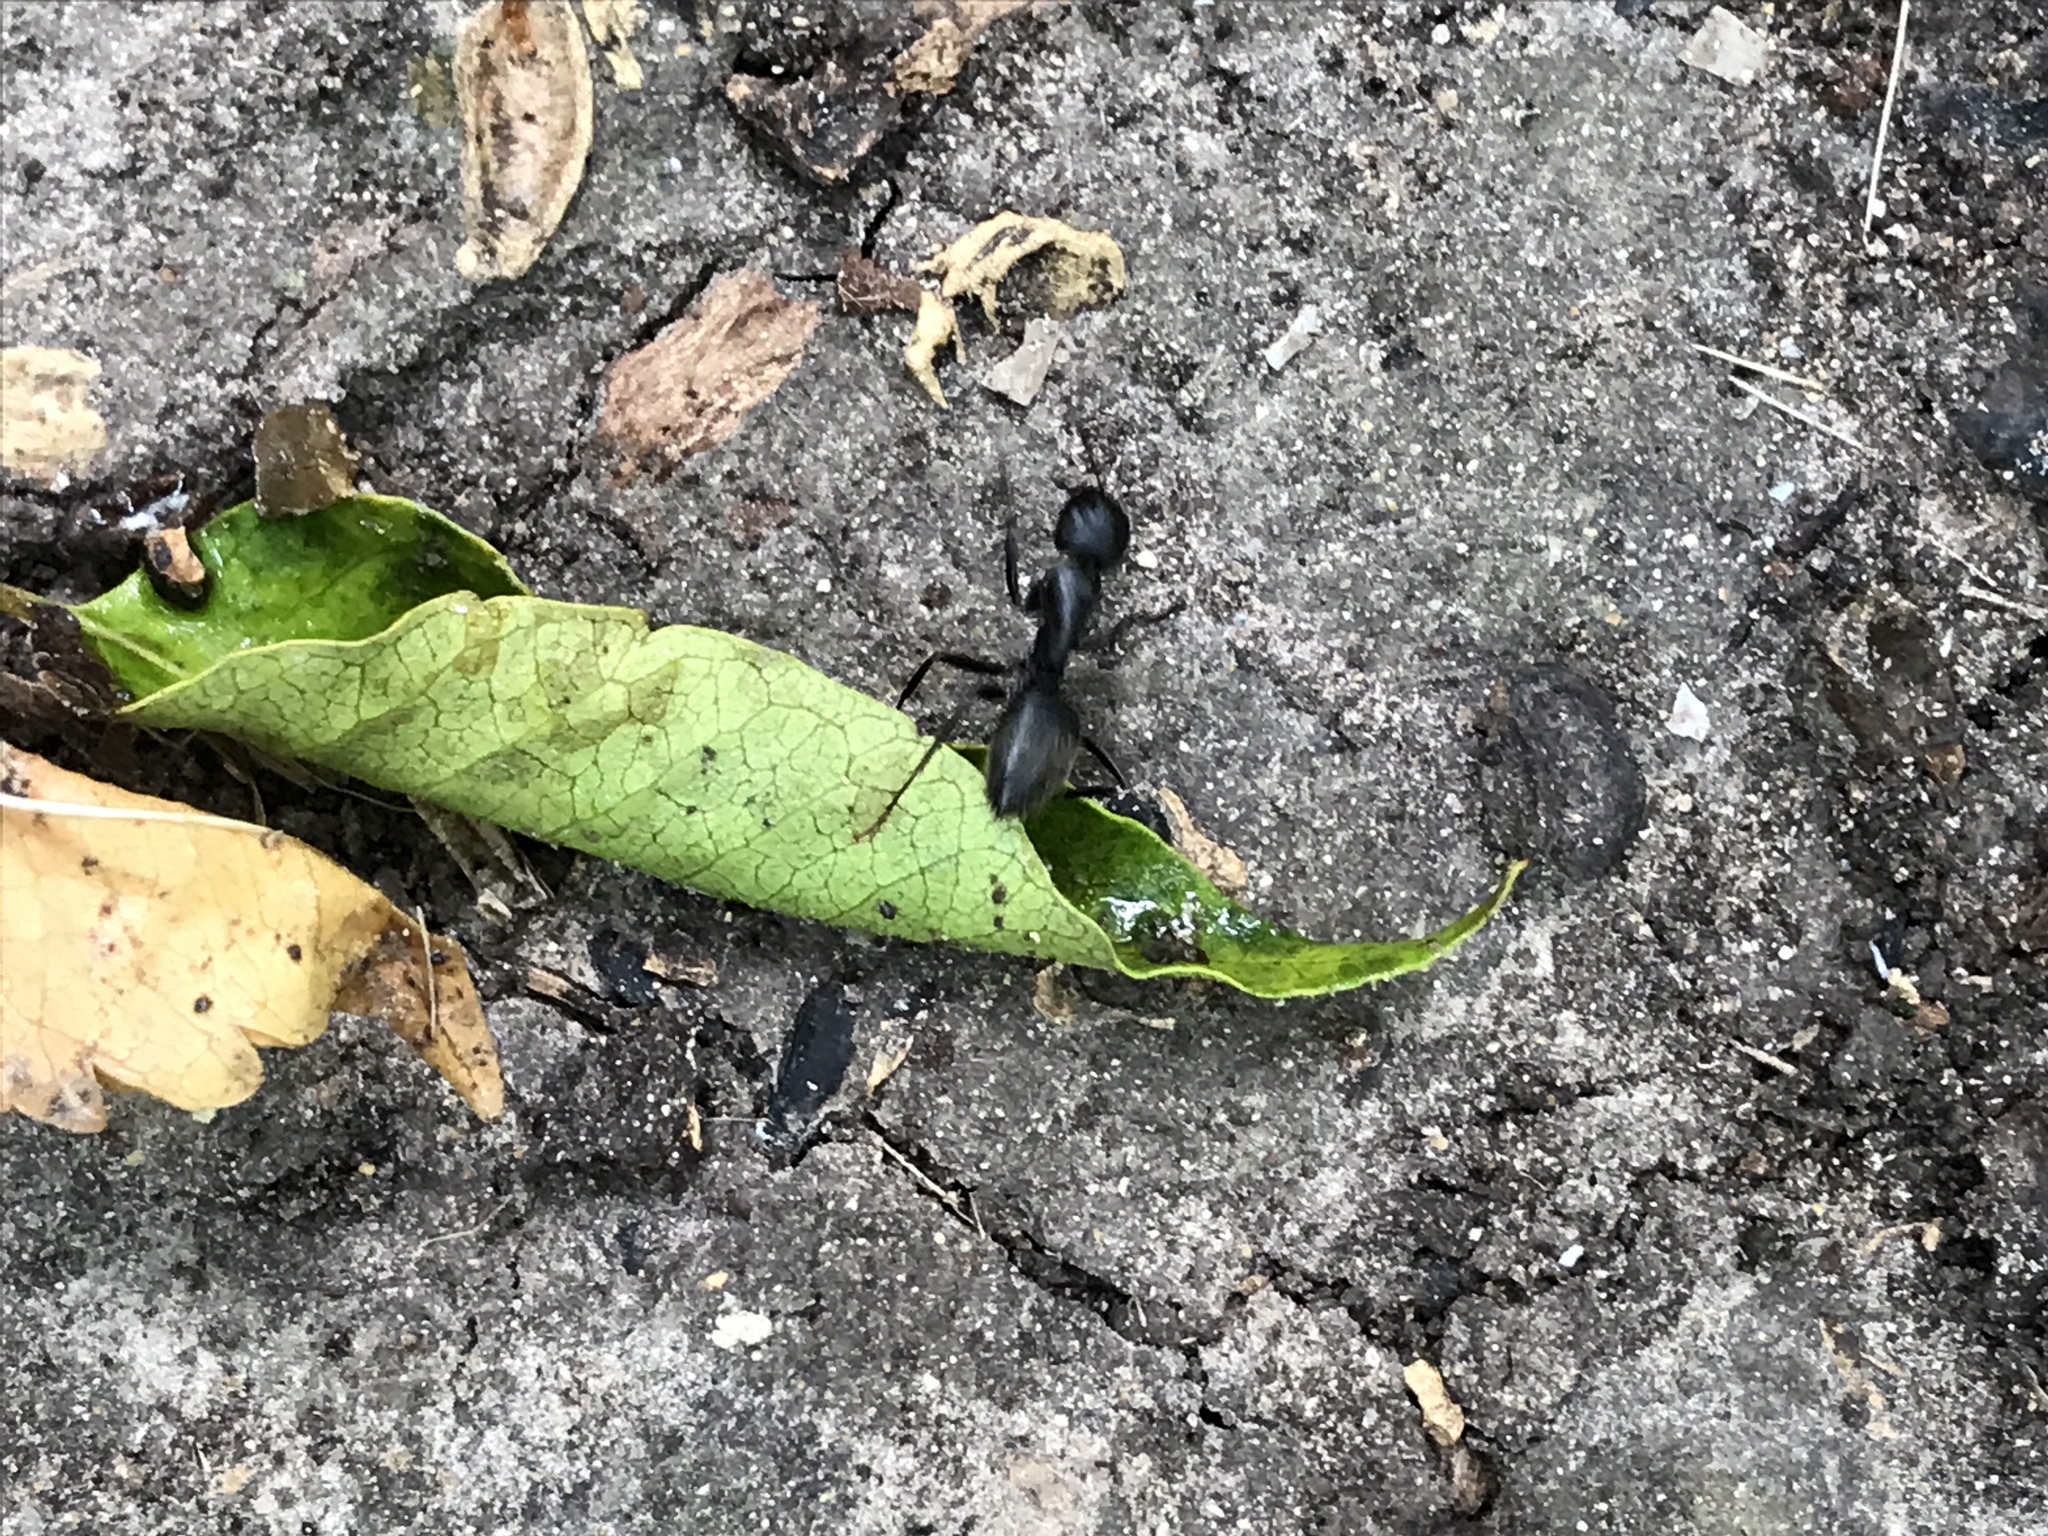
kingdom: Animalia
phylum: Arthropoda
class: Insecta
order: Hymenoptera
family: Formicidae
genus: Camponotus
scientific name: Camponotus pennsylvanicus
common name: Black carpenter ant
